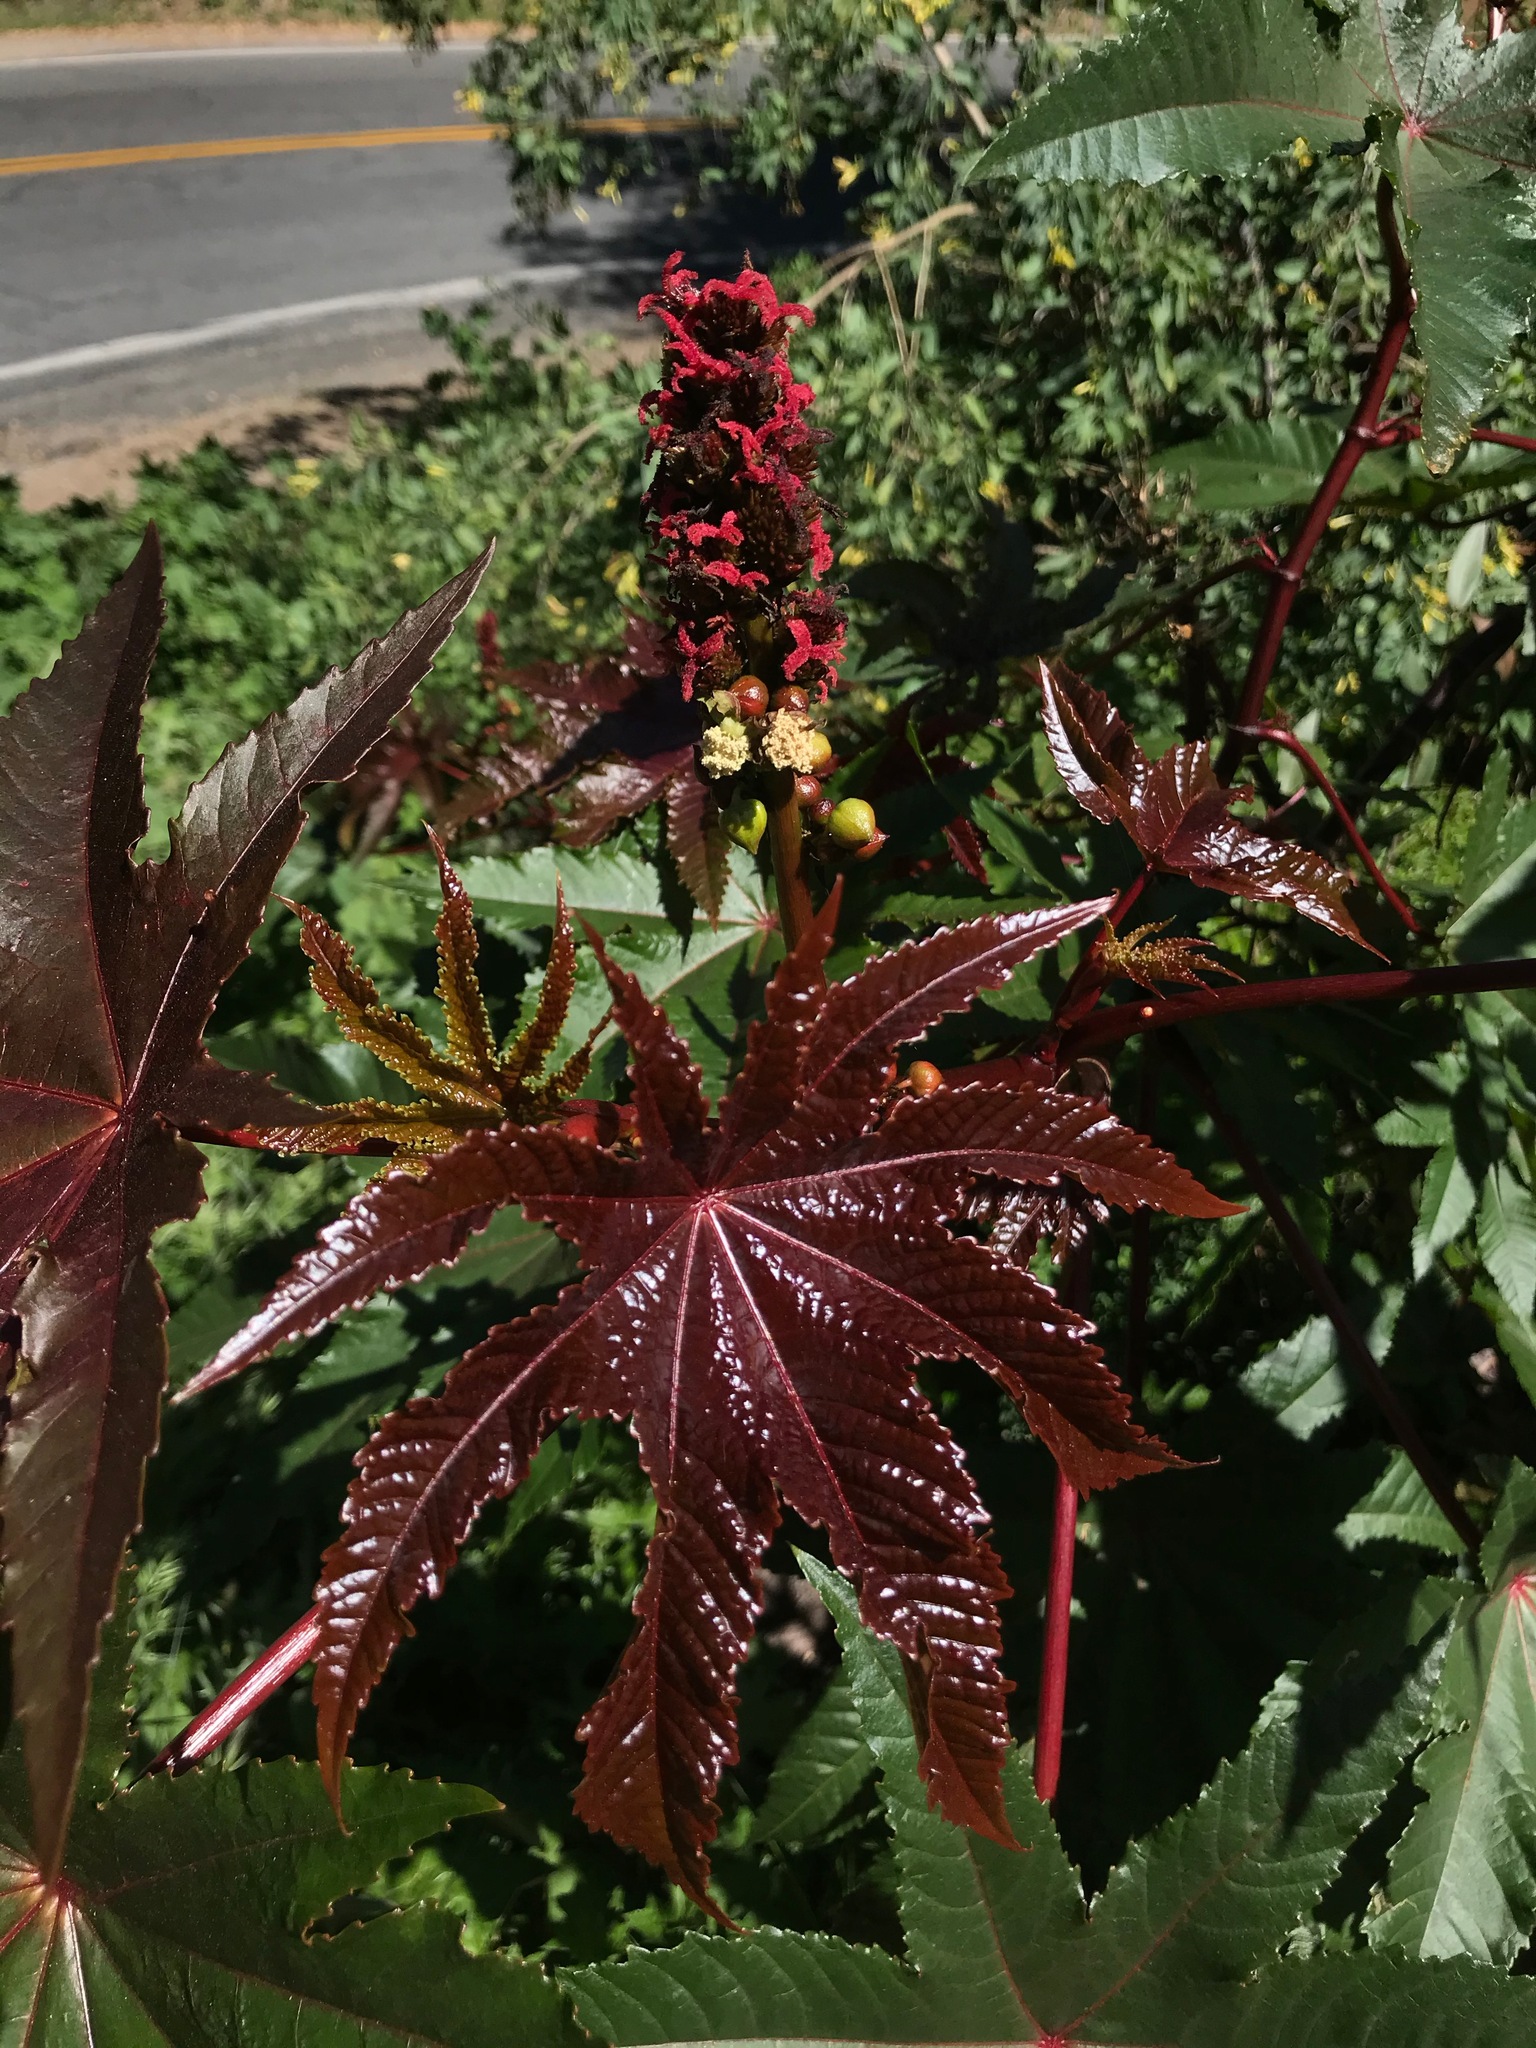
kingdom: Plantae
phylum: Tracheophyta
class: Magnoliopsida
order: Malpighiales
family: Euphorbiaceae
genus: Ricinus
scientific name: Ricinus communis
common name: Castor-oil-plant
